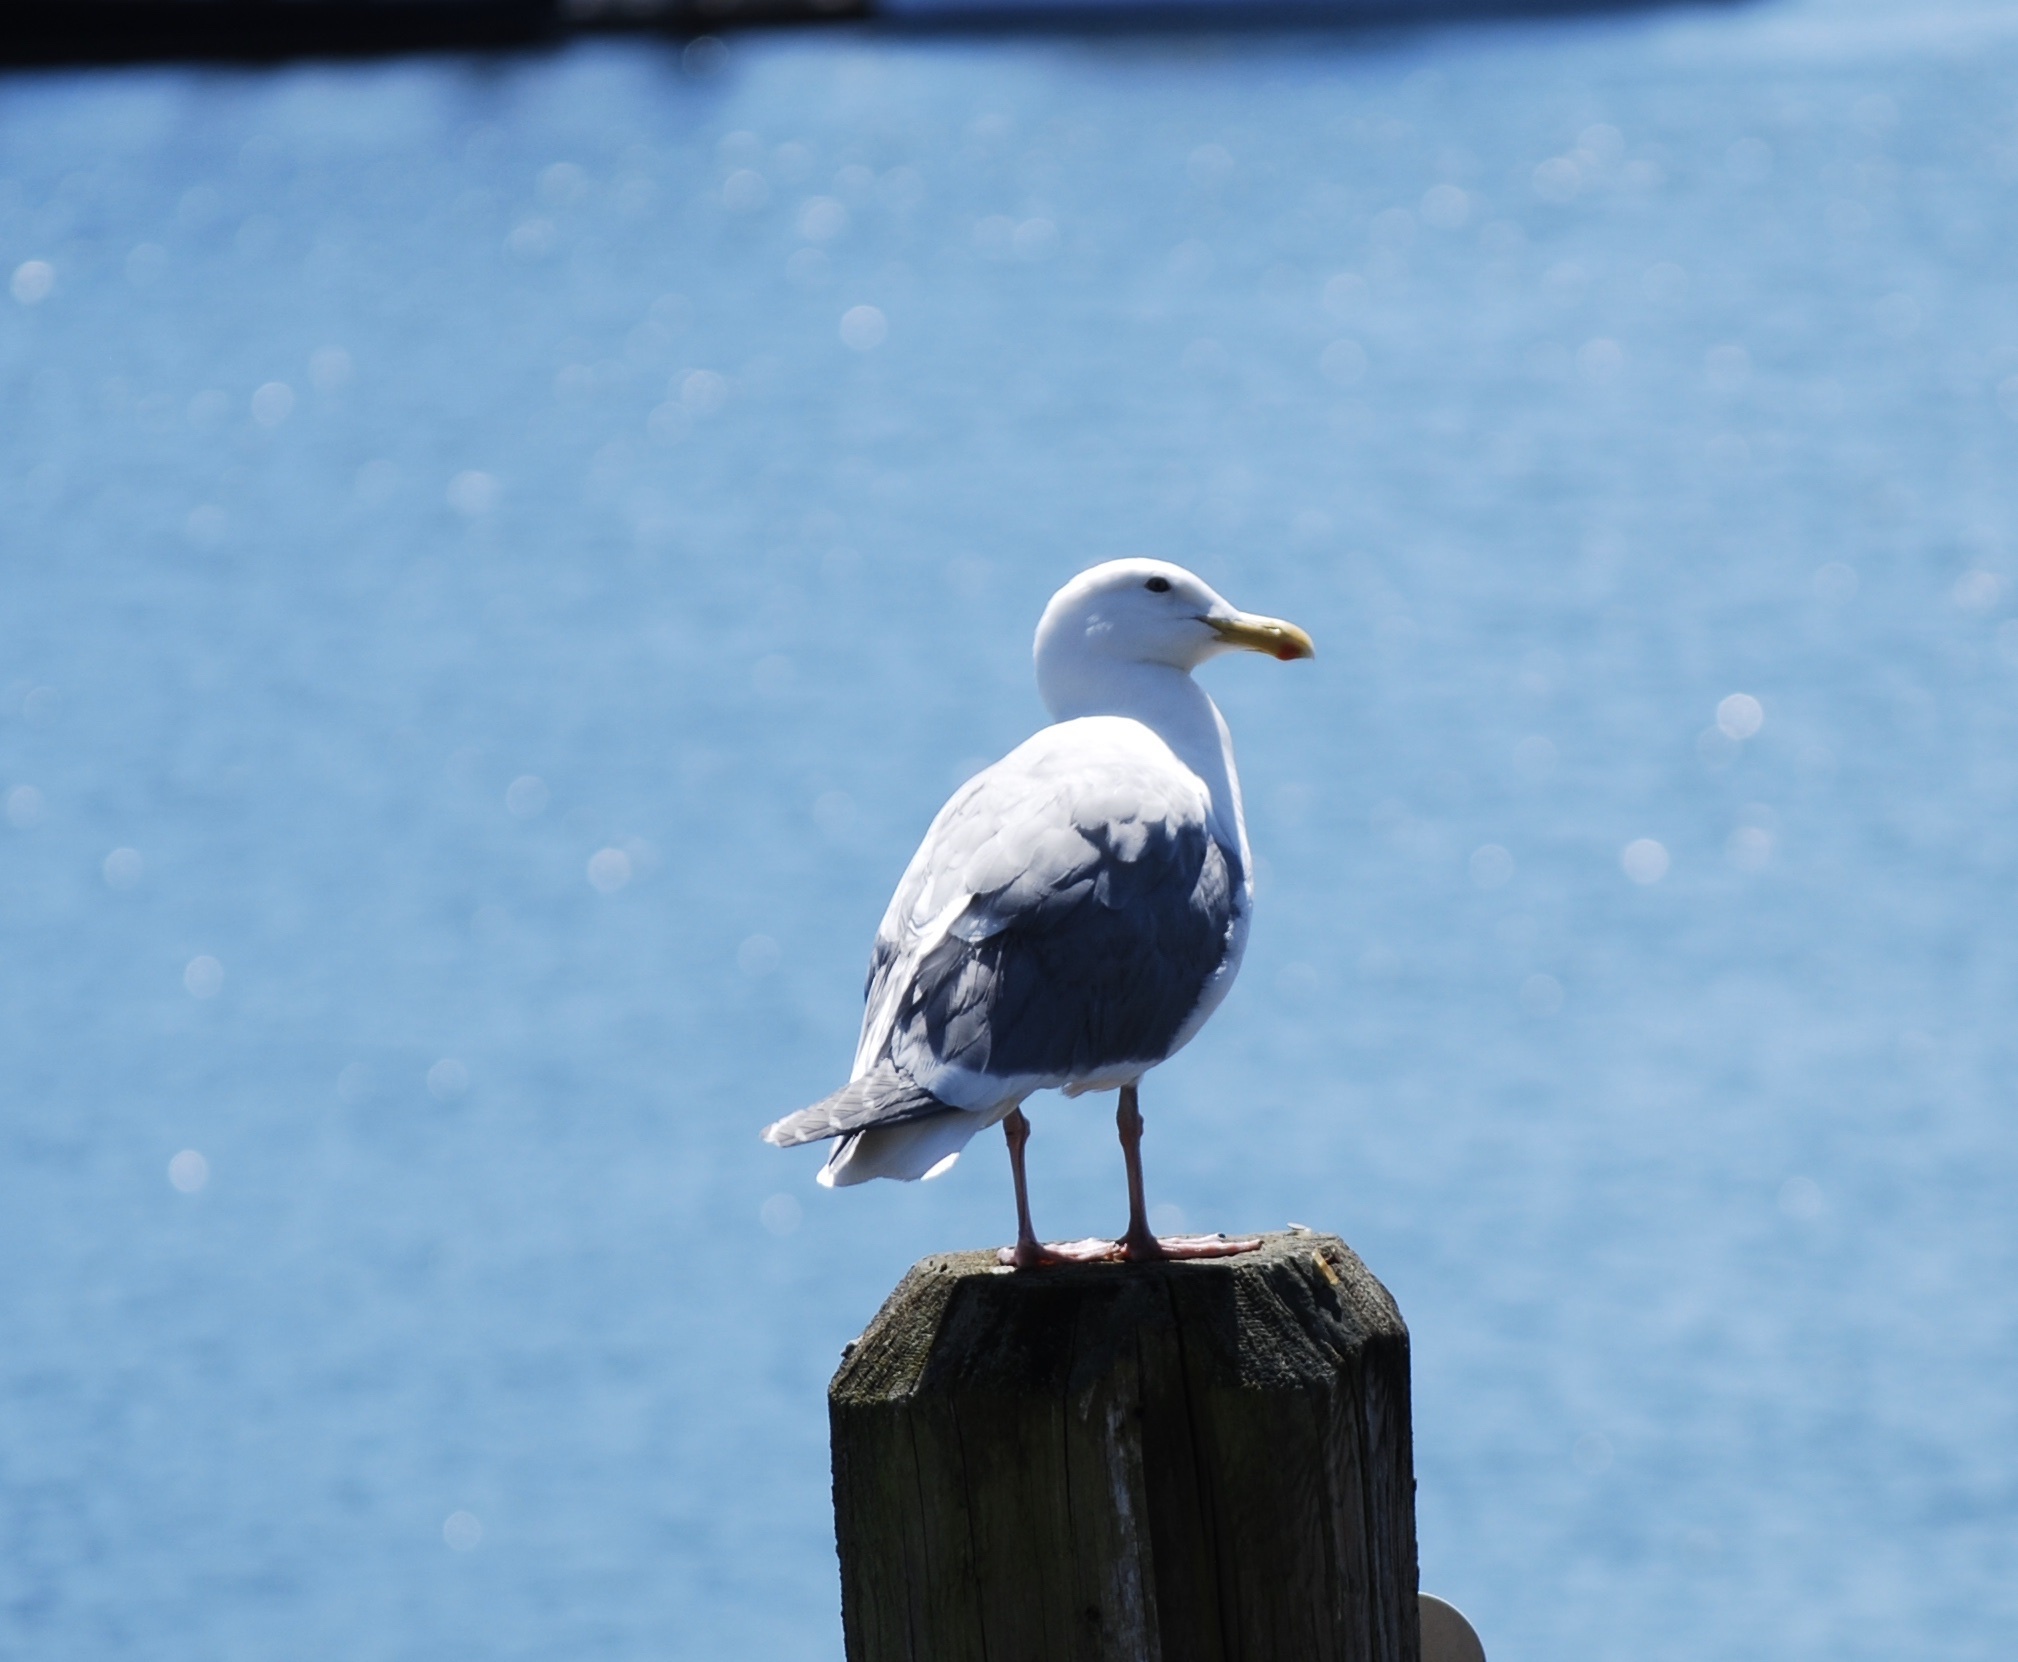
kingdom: Animalia
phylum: Chordata
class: Aves
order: Charadriiformes
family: Laridae
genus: Larus
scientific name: Larus glaucescens
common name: Glaucous-winged gull
